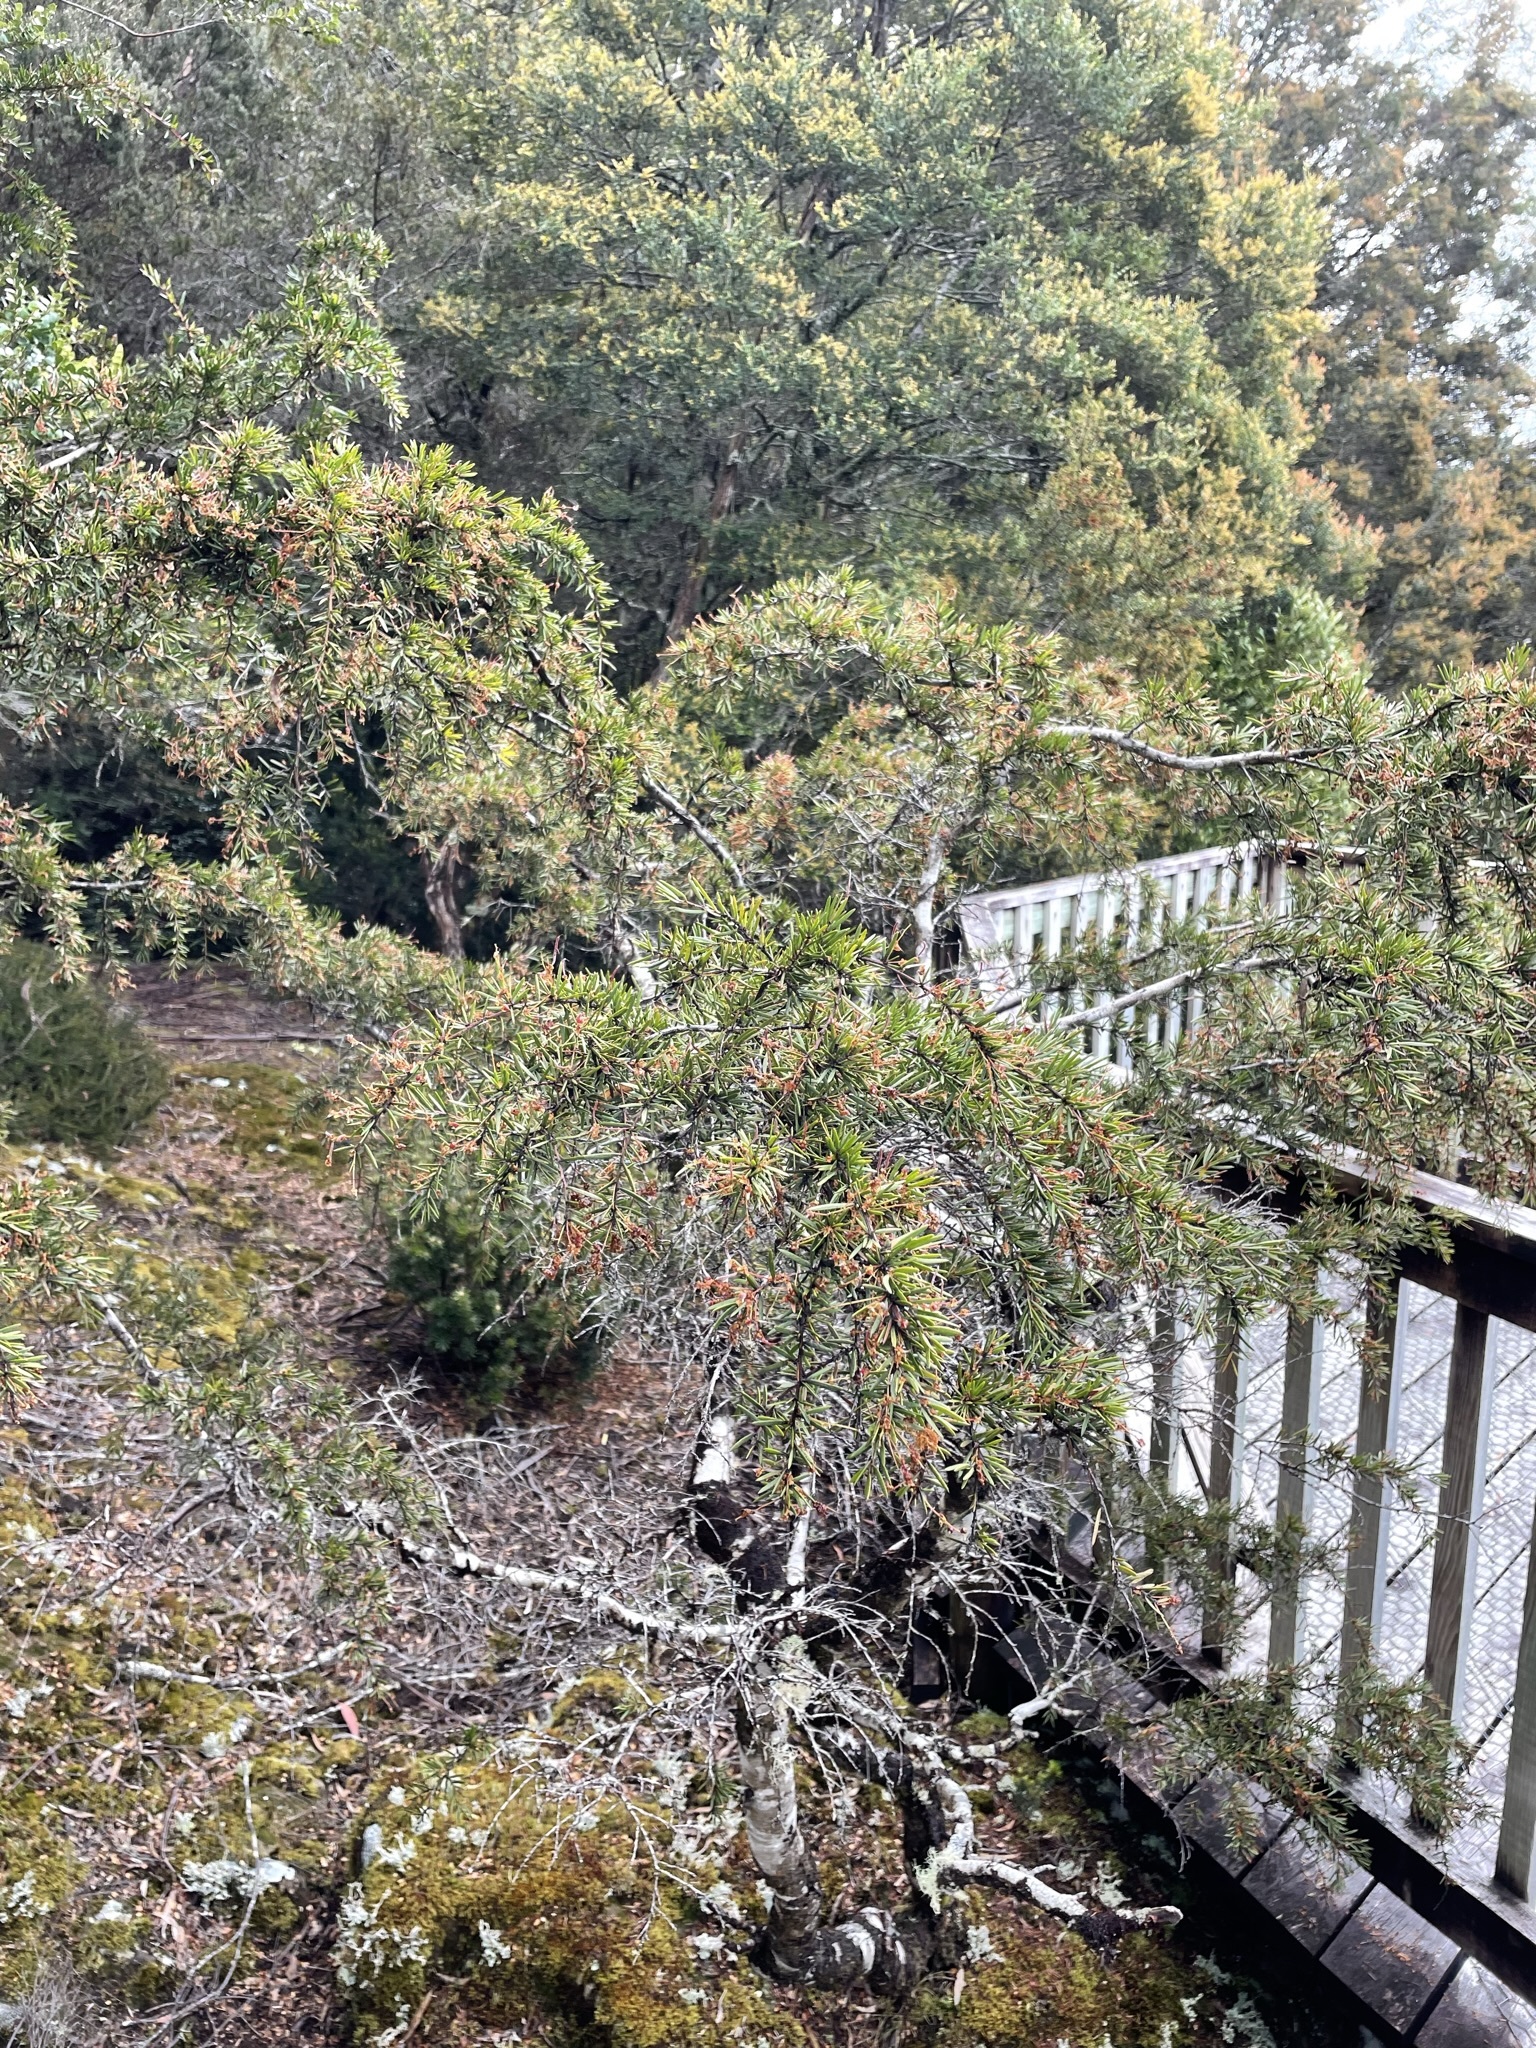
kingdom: Plantae
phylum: Tracheophyta
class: Magnoliopsida
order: Fabales
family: Fabaceae
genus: Acacia
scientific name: Acacia riceana
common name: Rice's wattle
